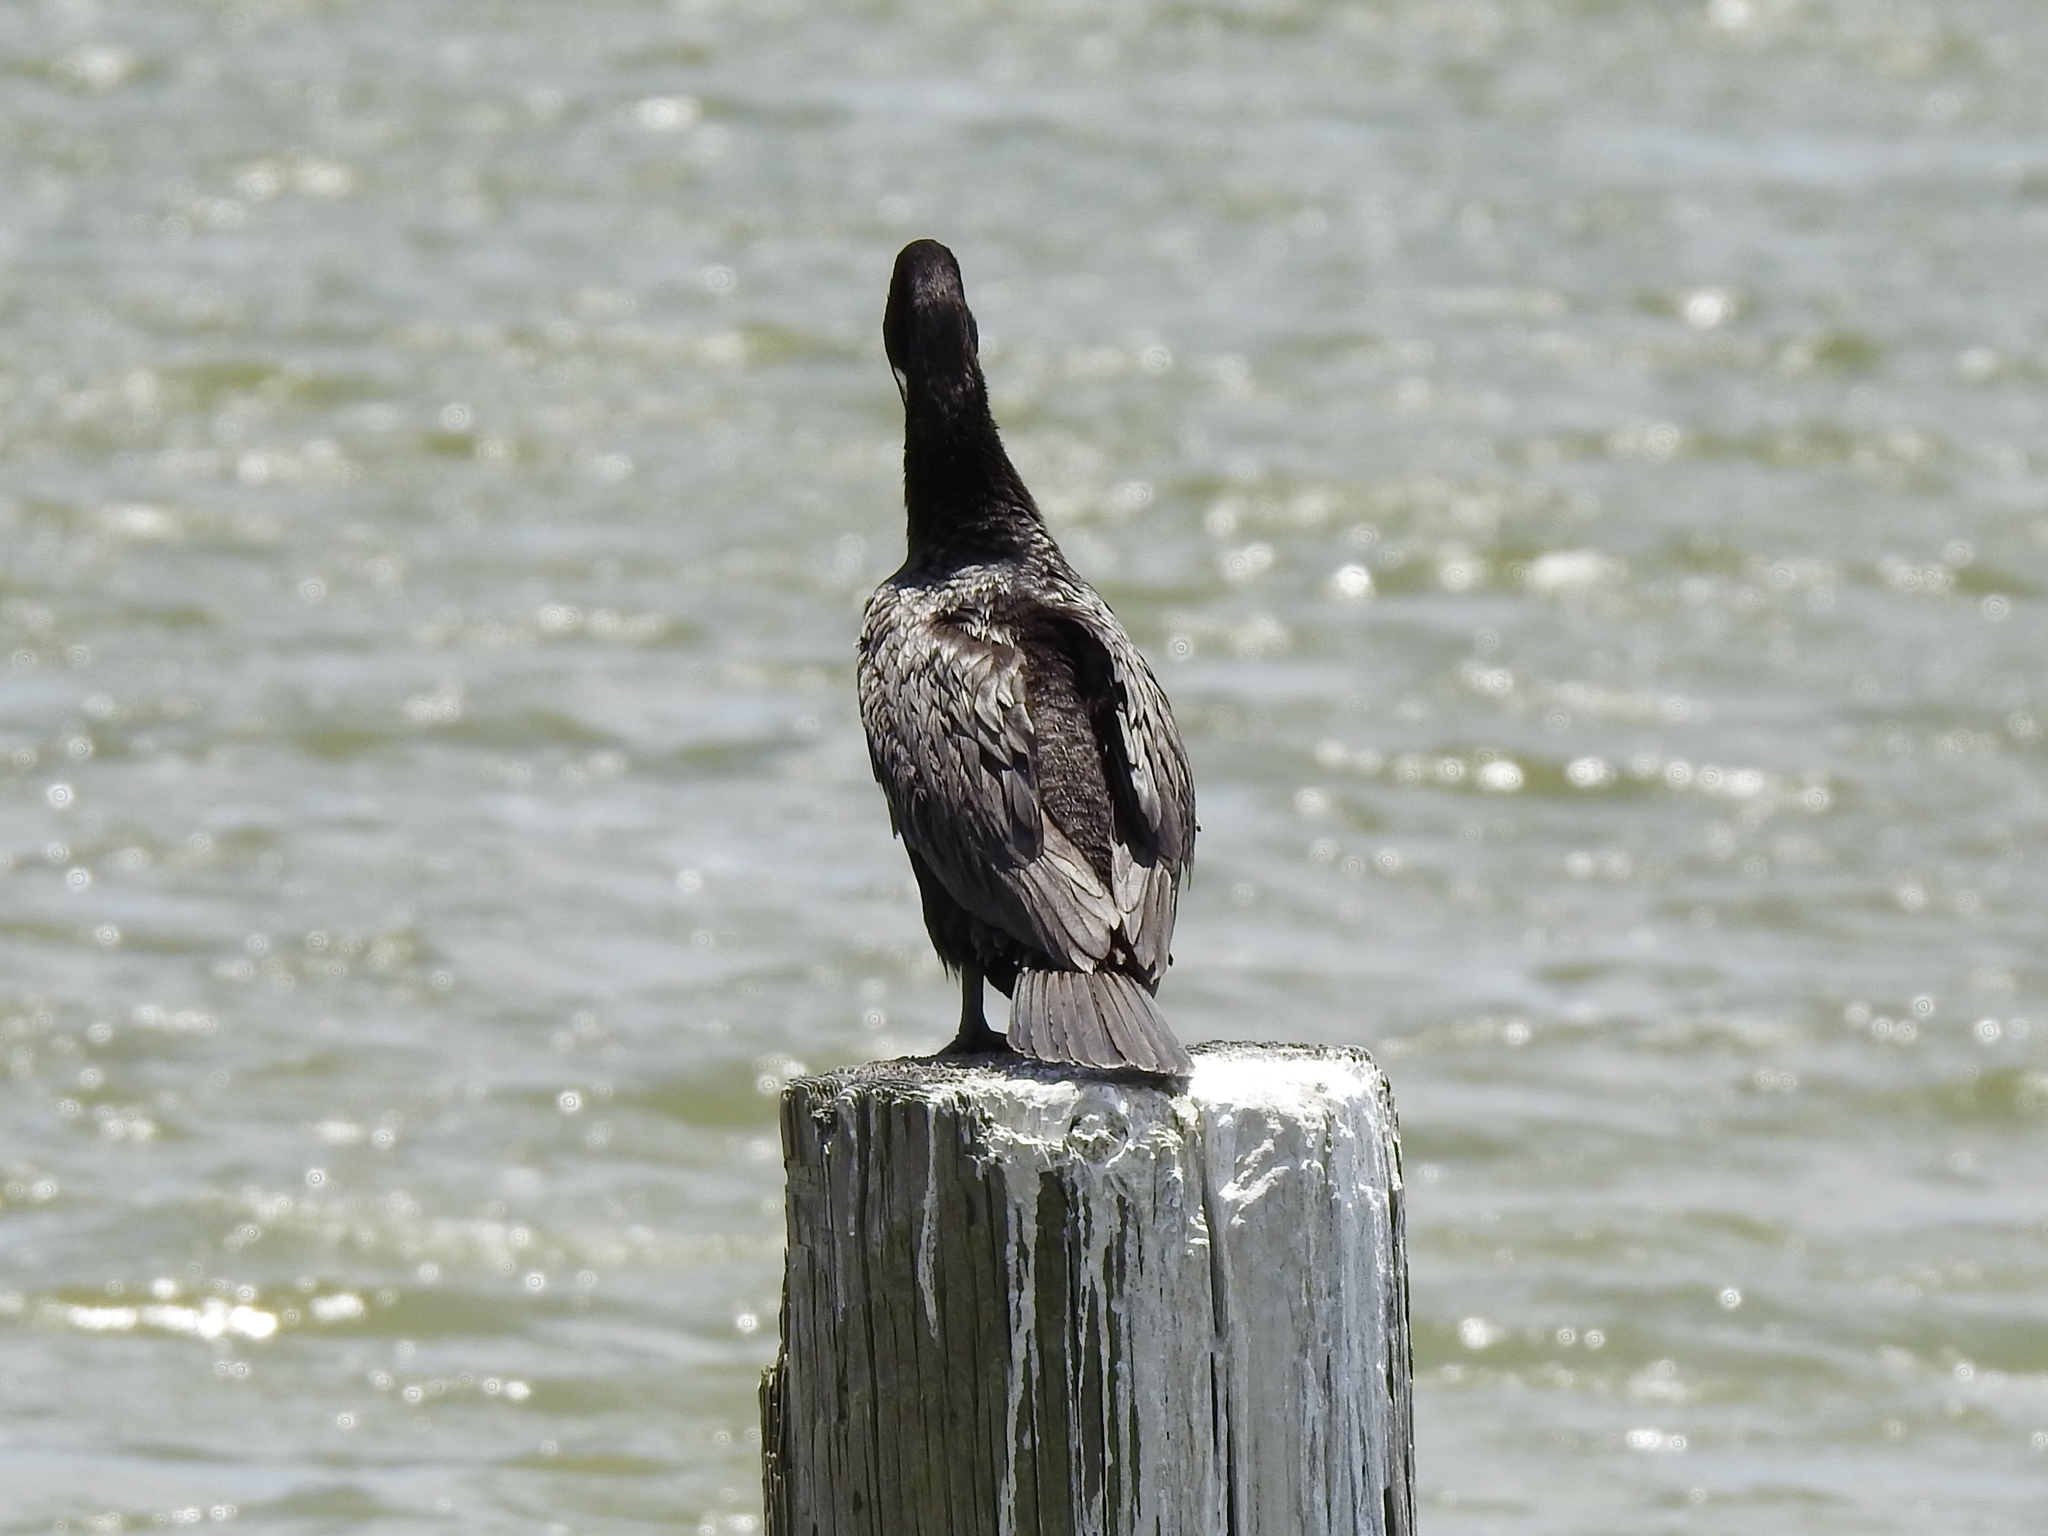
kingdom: Animalia
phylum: Chordata
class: Aves
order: Suliformes
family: Phalacrocoracidae
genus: Phalacrocorax
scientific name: Phalacrocorax brasilianus
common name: Neotropic cormorant
